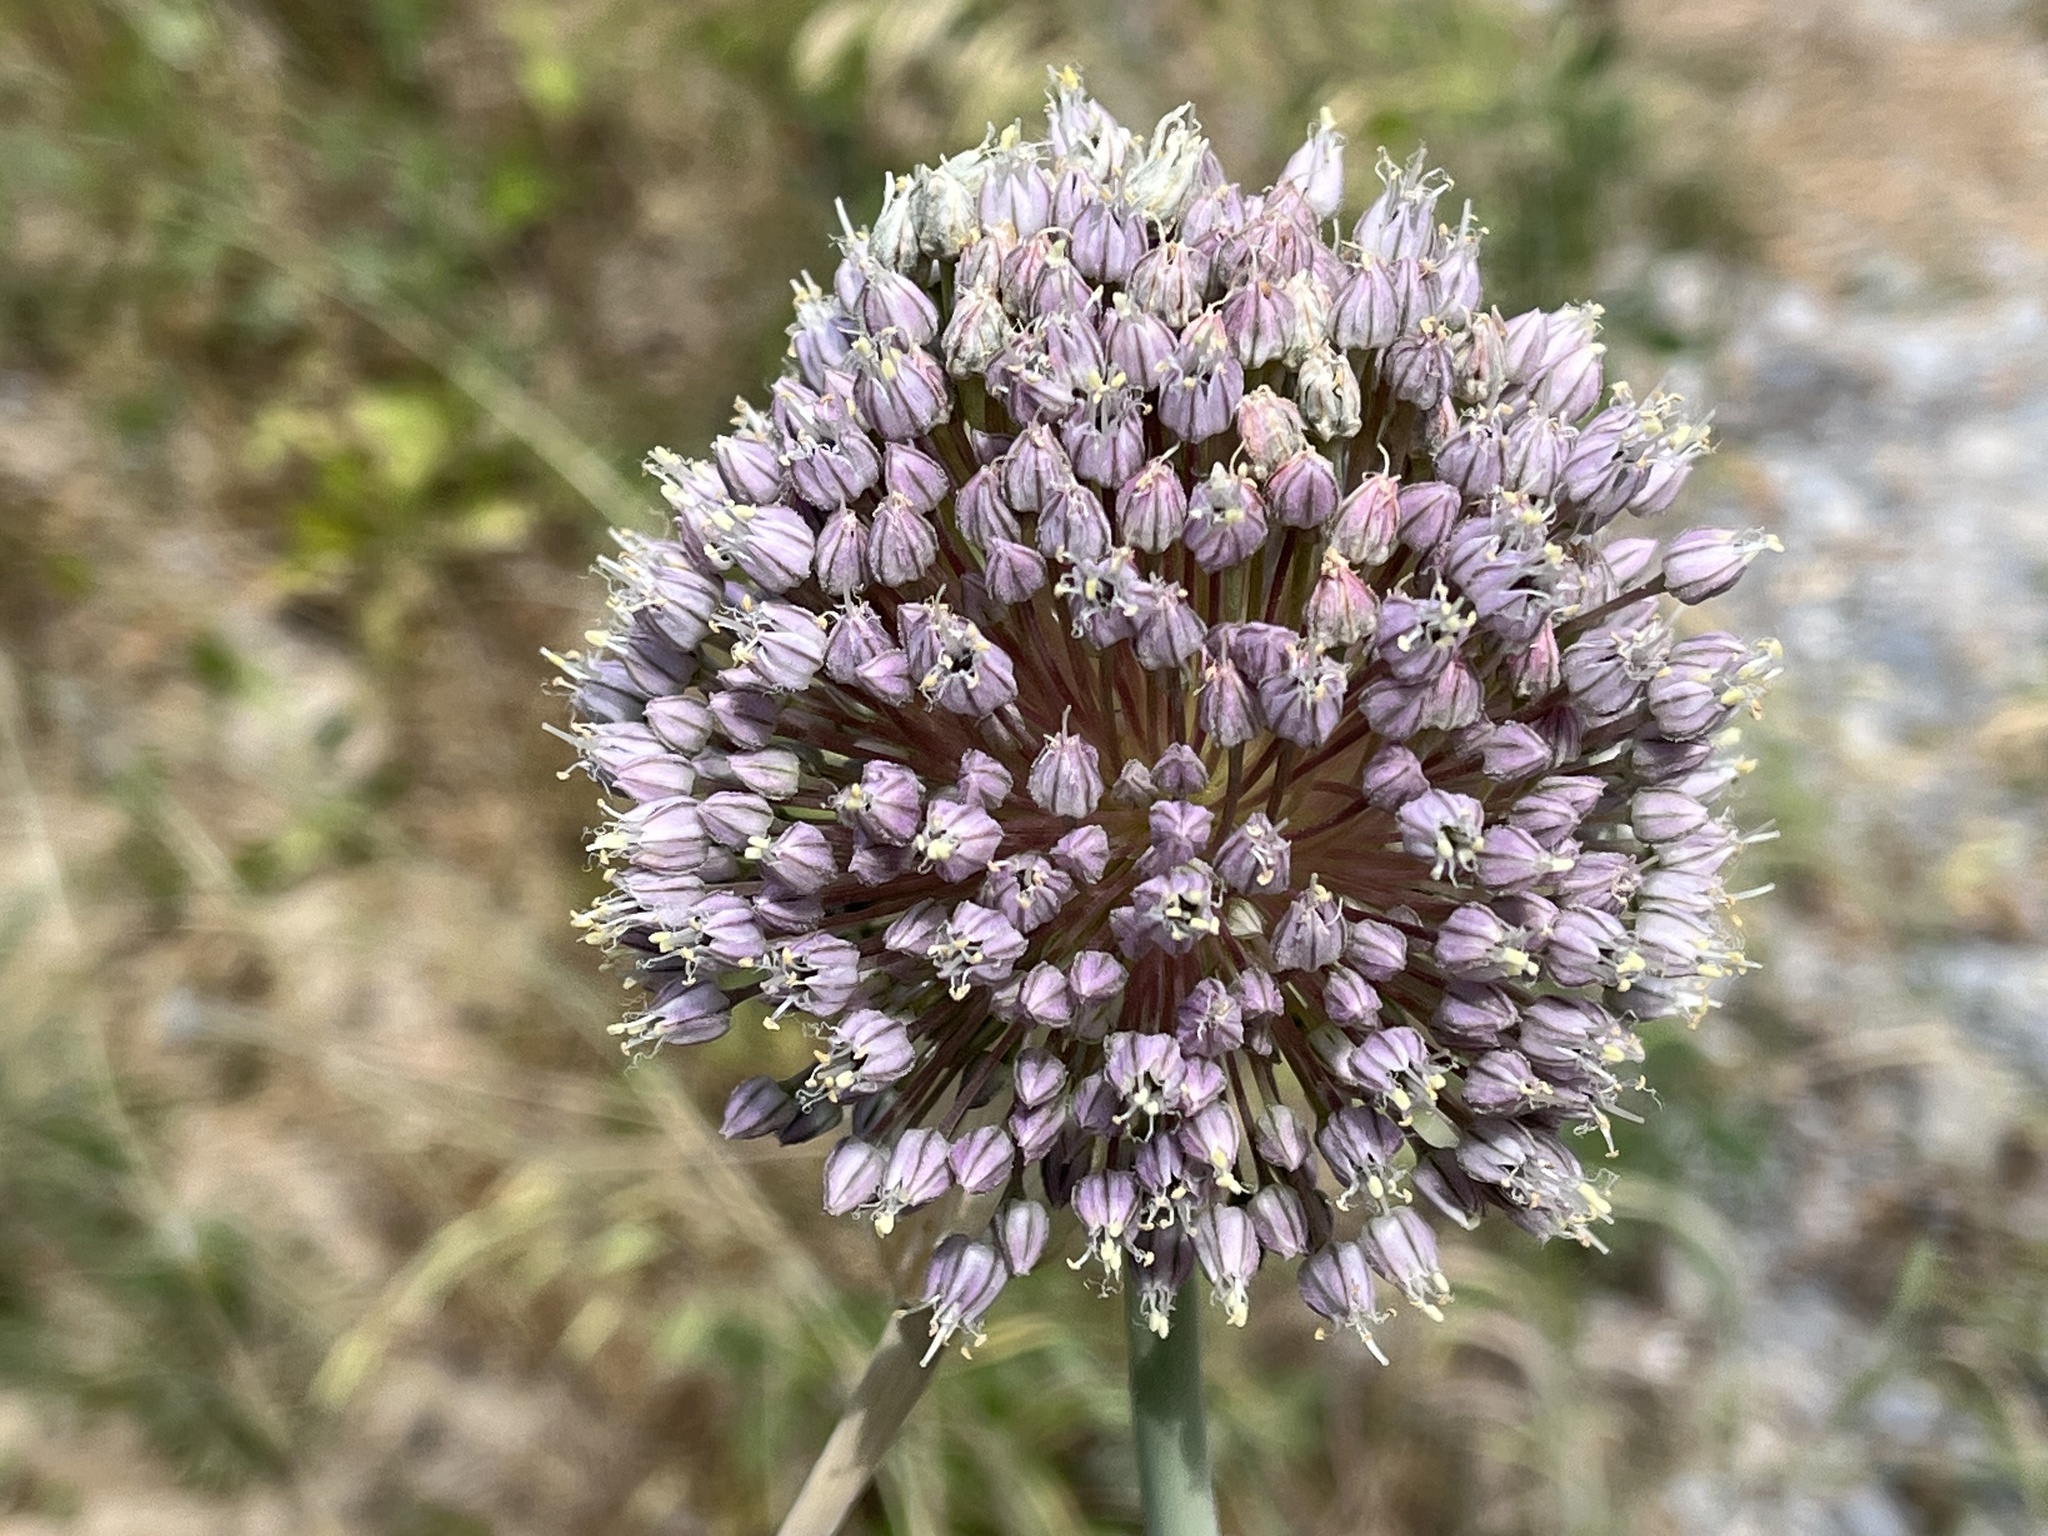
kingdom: Plantae
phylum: Tracheophyta
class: Liliopsida
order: Asparagales
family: Amaryllidaceae
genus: Allium
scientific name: Allium ampeloprasum
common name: Wild leek
